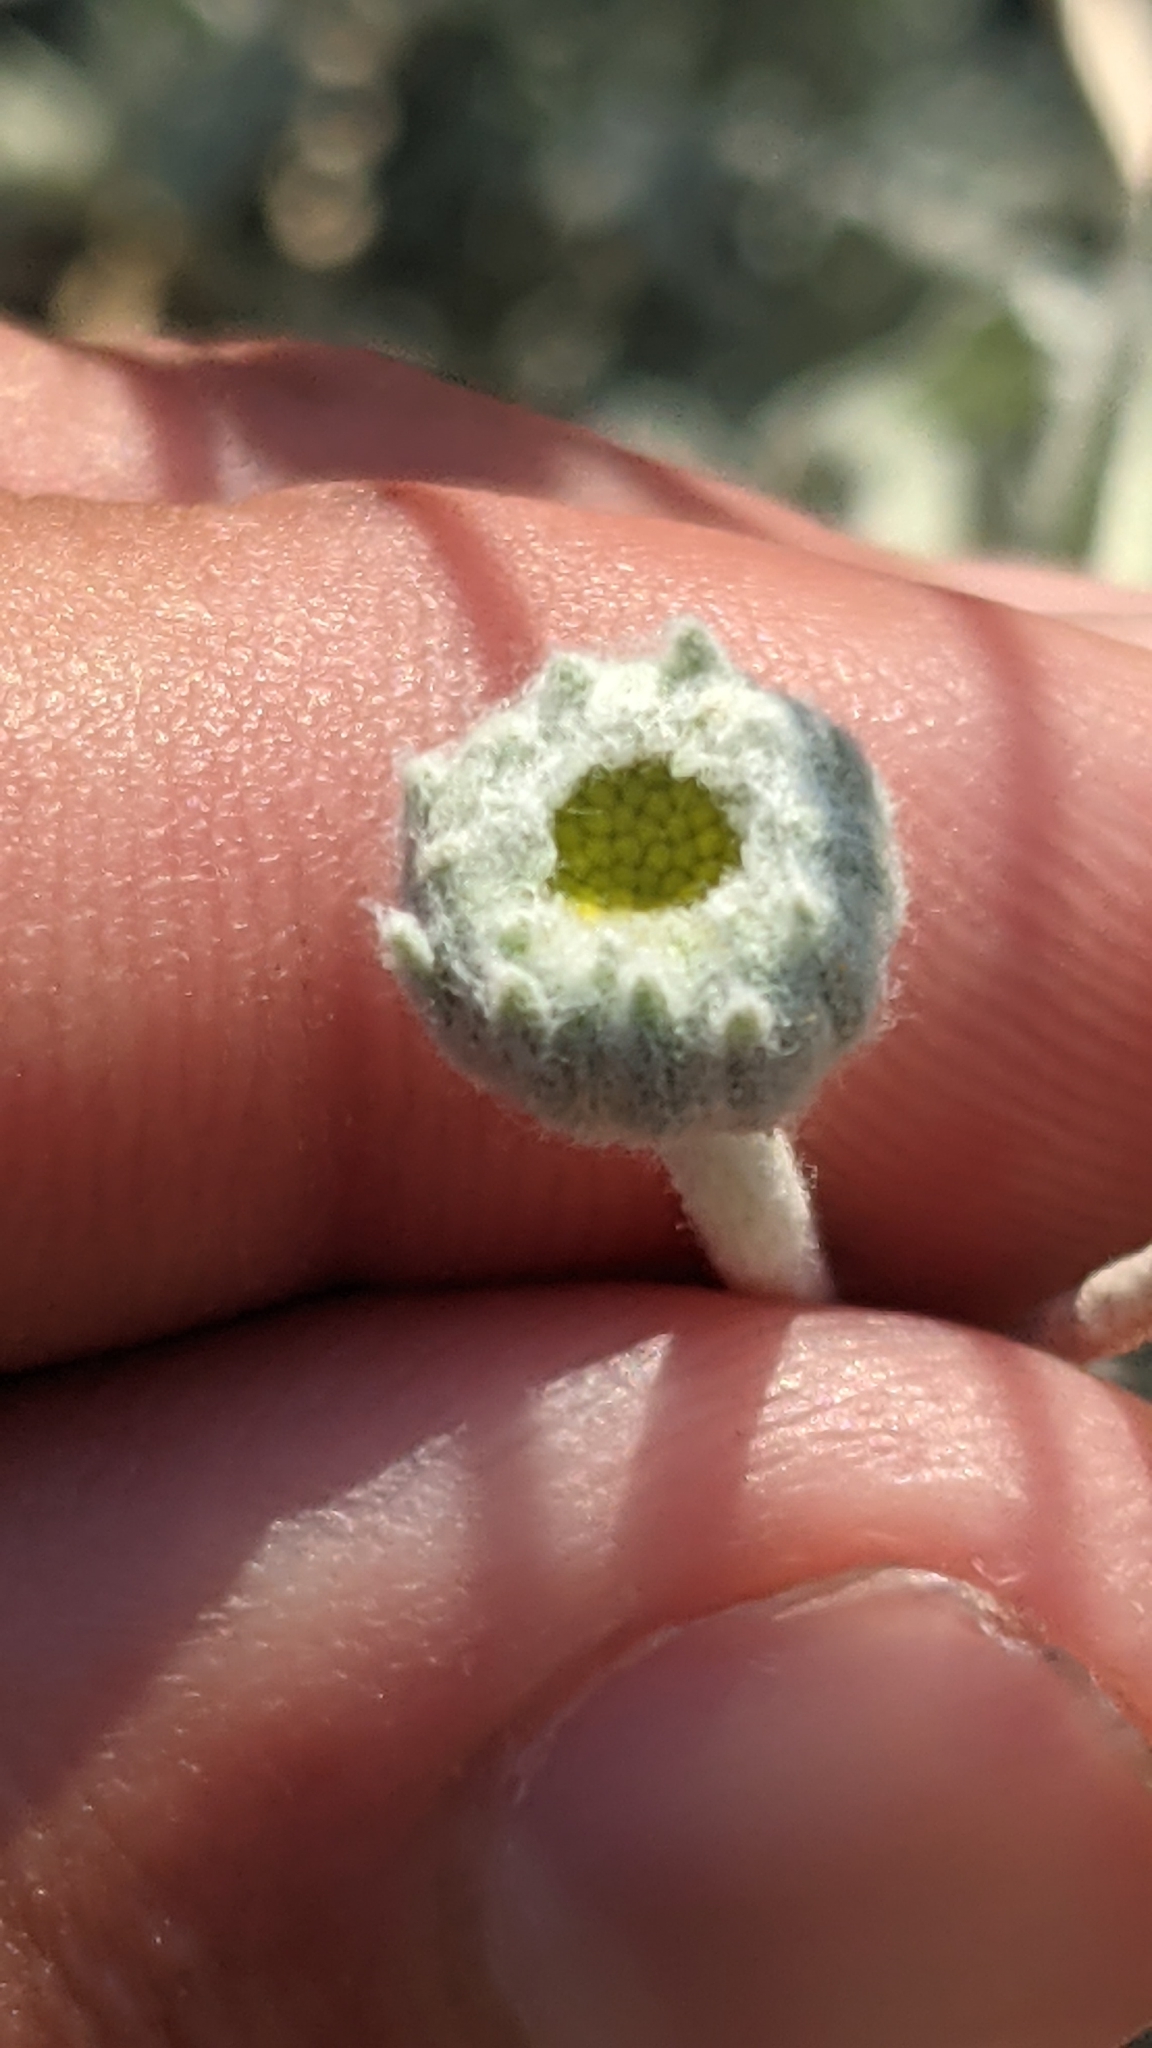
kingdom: Plantae
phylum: Tracheophyta
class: Magnoliopsida
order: Asterales
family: Asteraceae
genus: Baileya
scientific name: Baileya multiradiata
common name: Desert-marigold
